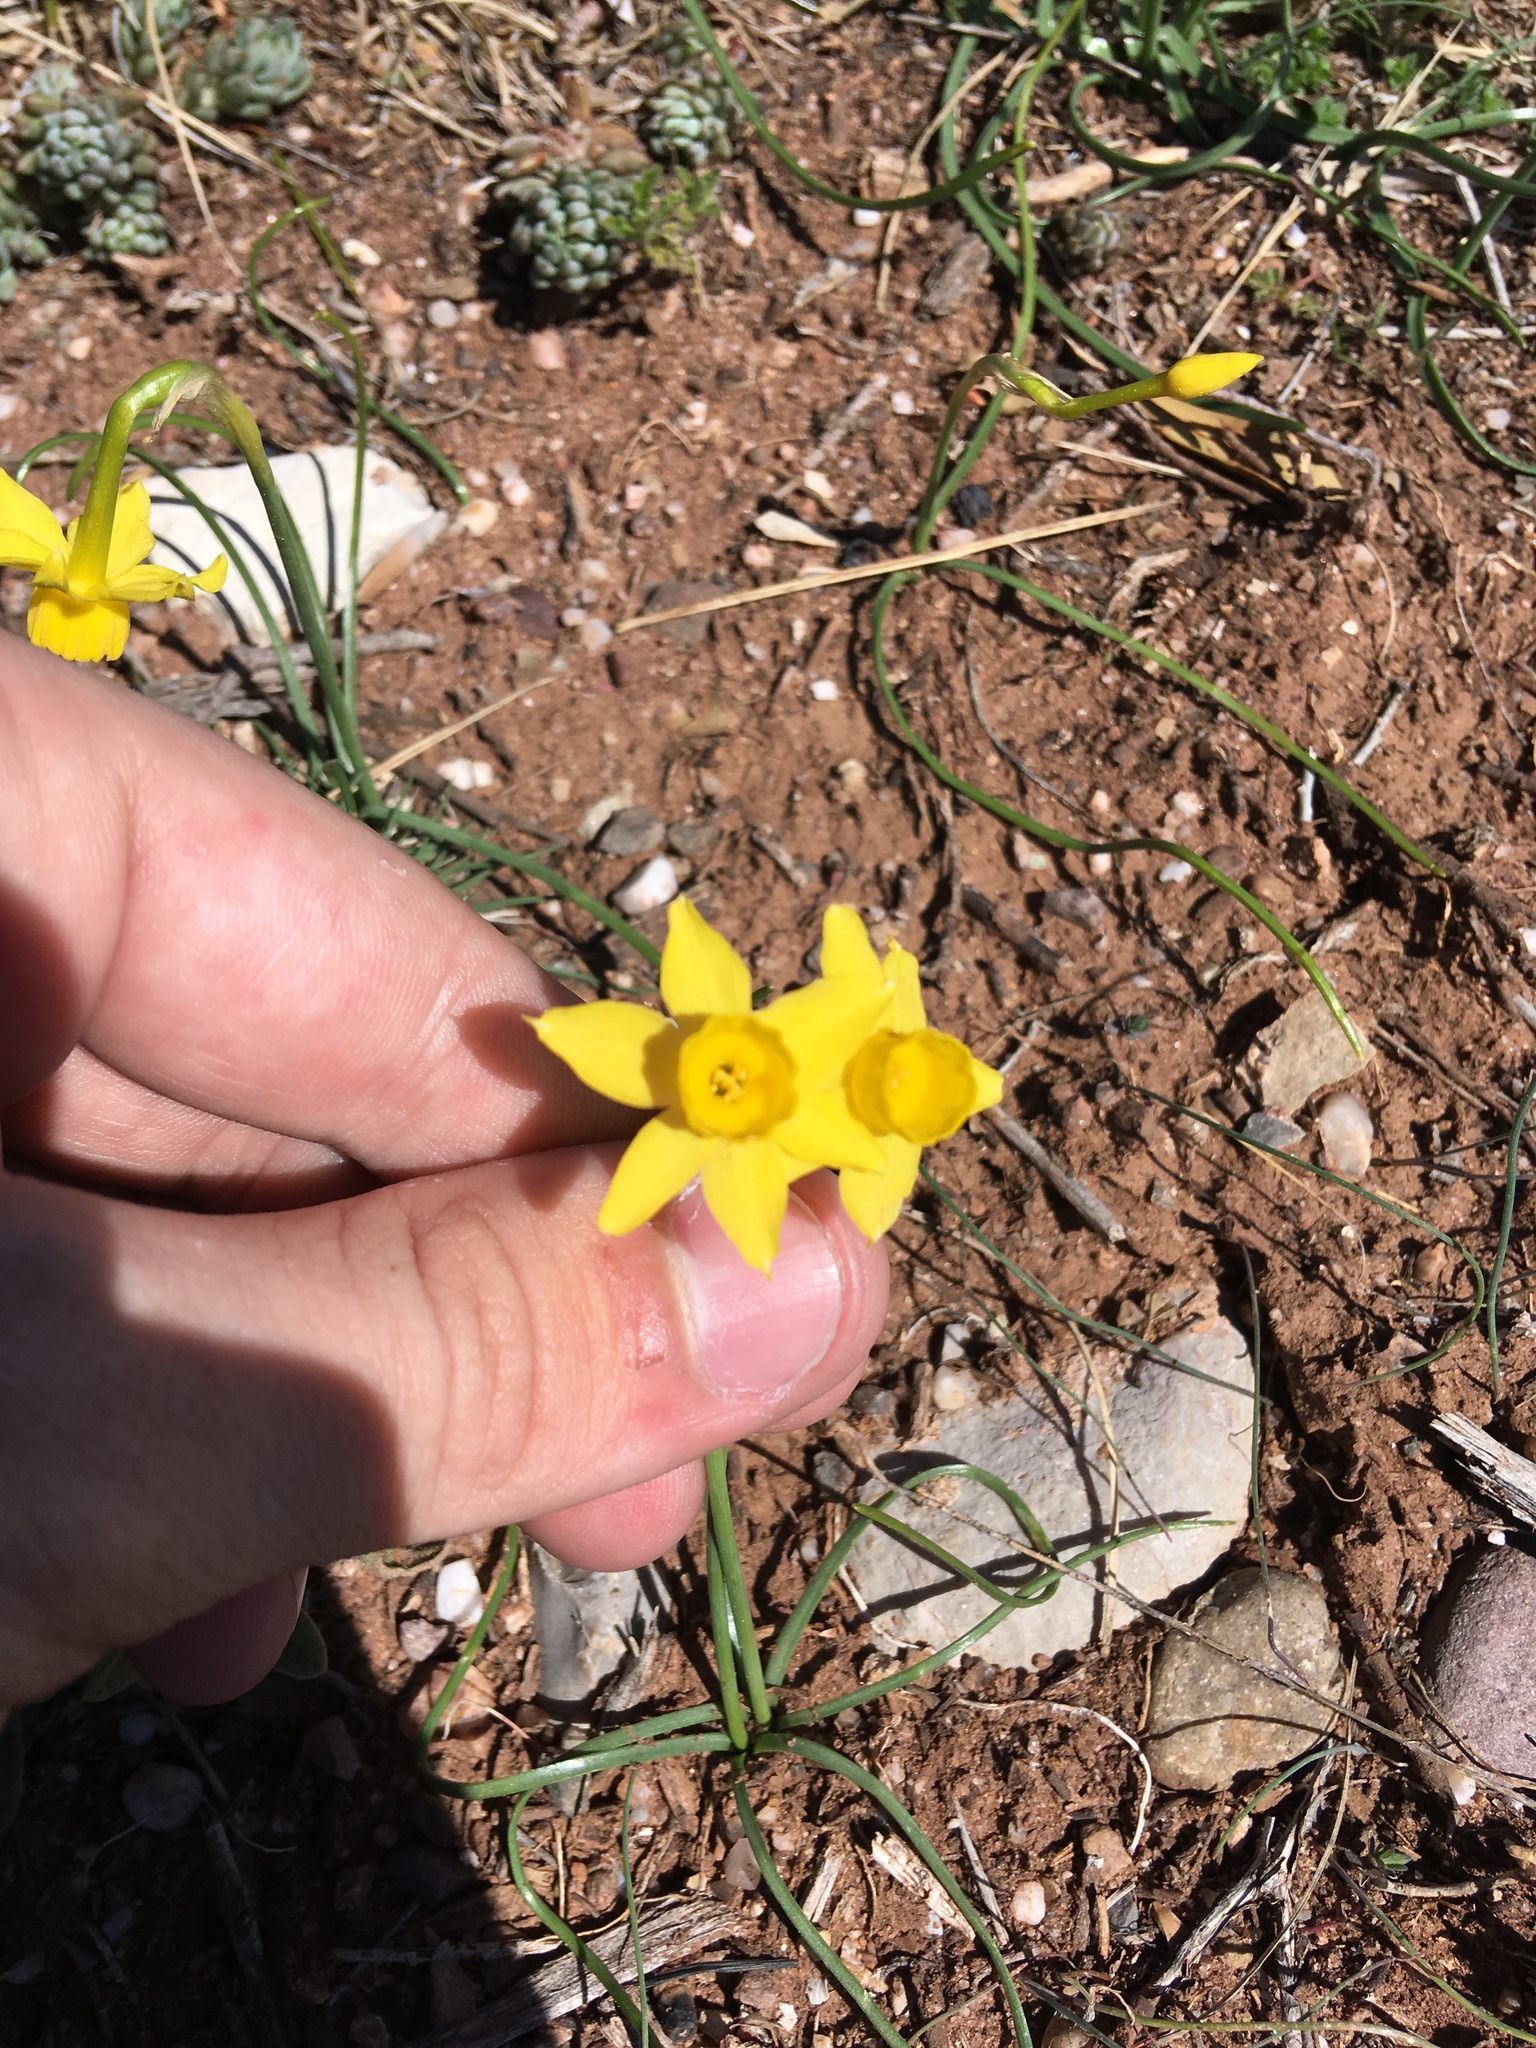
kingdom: Plantae
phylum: Tracheophyta
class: Liliopsida
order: Asparagales
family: Amaryllidaceae
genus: Narcissus
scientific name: Narcissus assoanus
